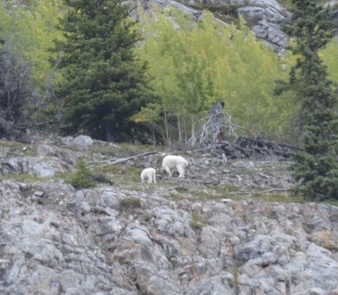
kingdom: Animalia
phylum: Chordata
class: Mammalia
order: Artiodactyla
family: Bovidae
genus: Oreamnos
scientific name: Oreamnos americanus
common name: Mountain goat
